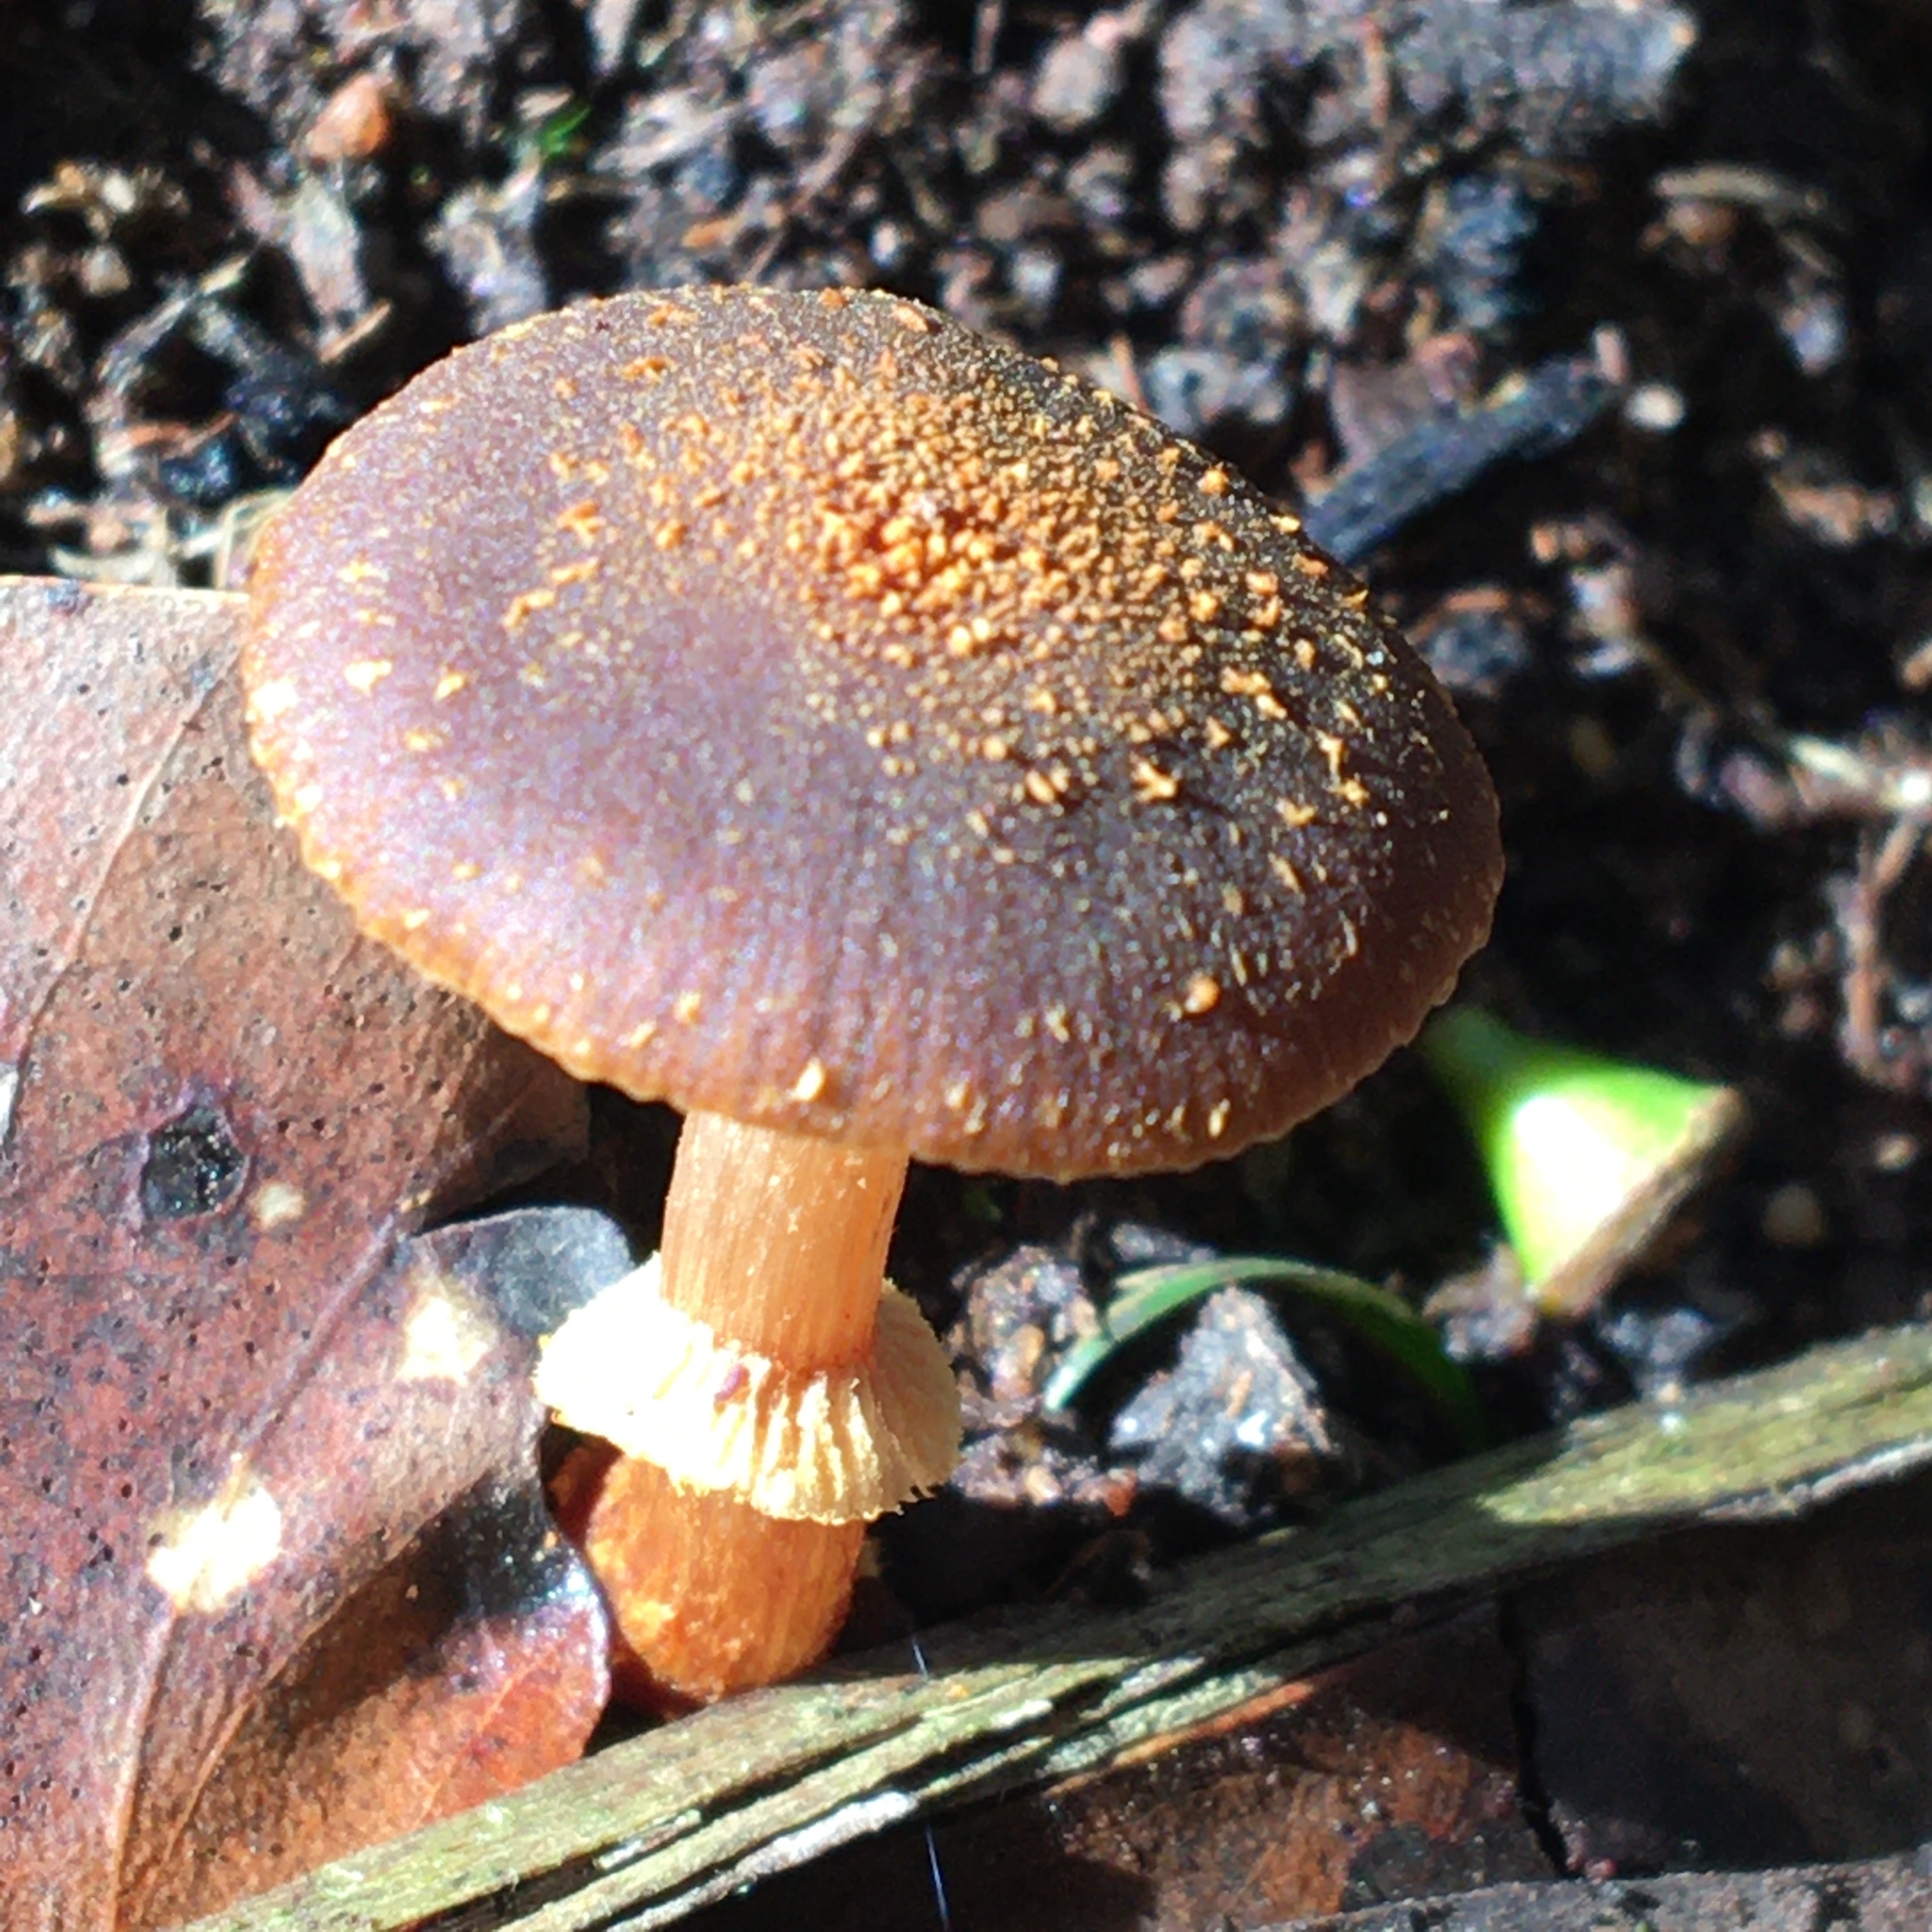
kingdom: Fungi
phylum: Basidiomycota
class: Agaricomycetes
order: Agaricales
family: Bolbitiaceae
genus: Descolea
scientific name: Descolea recedens
